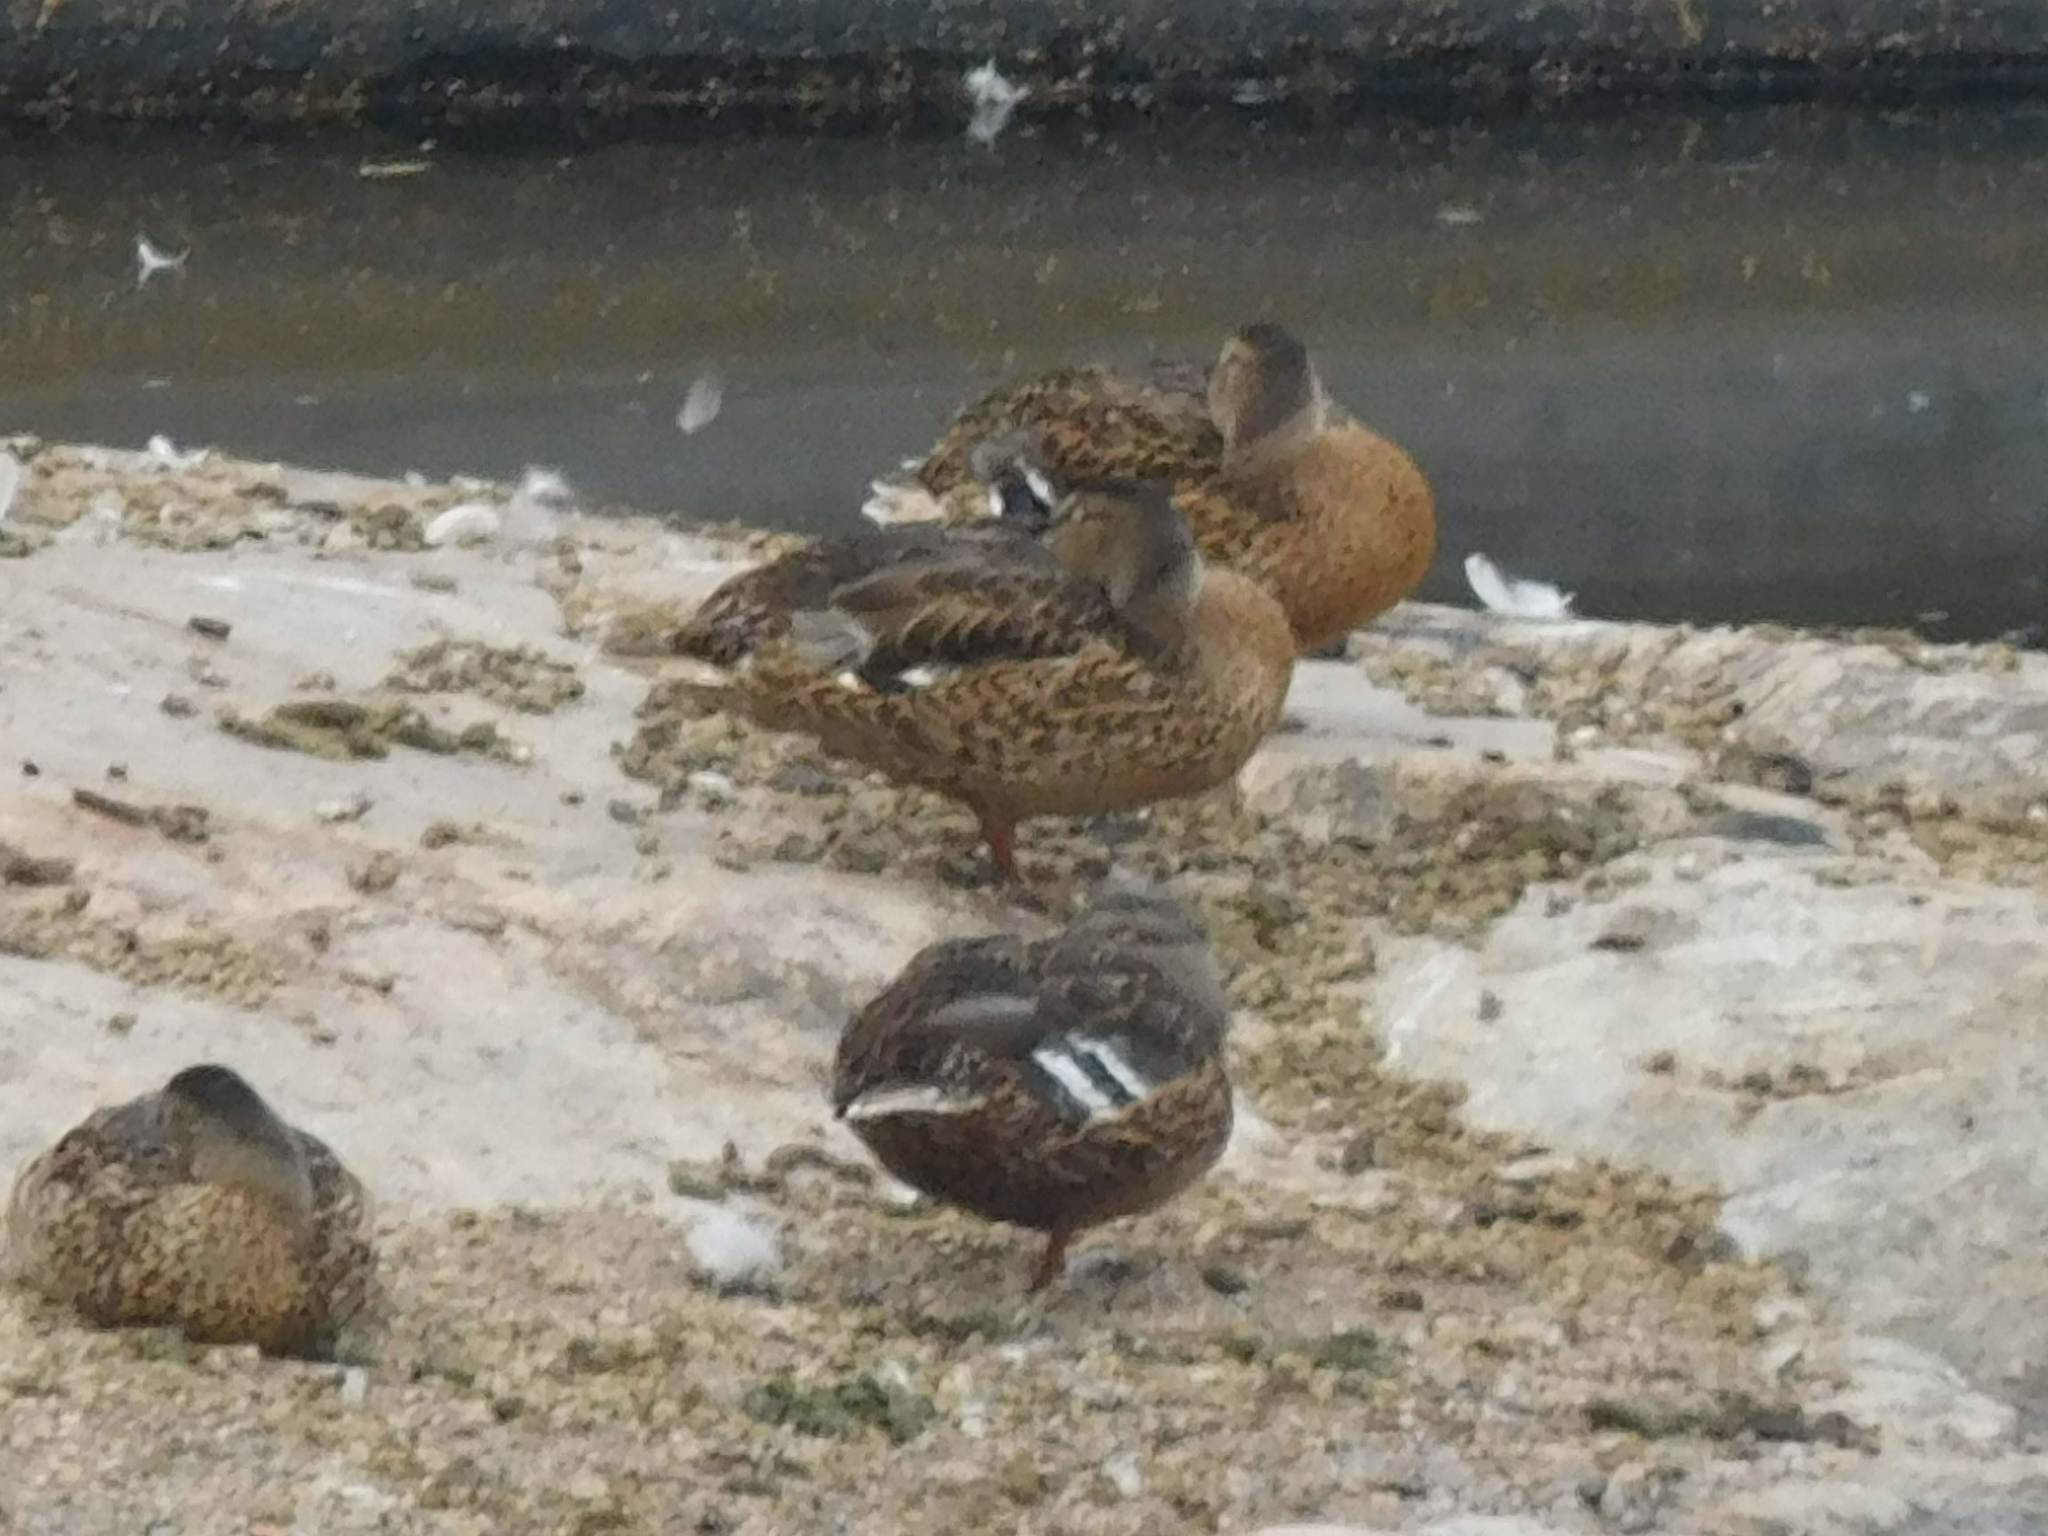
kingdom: Animalia
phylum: Chordata
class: Aves
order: Anseriformes
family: Anatidae
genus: Anas
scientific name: Anas platyrhynchos
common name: Mallard
